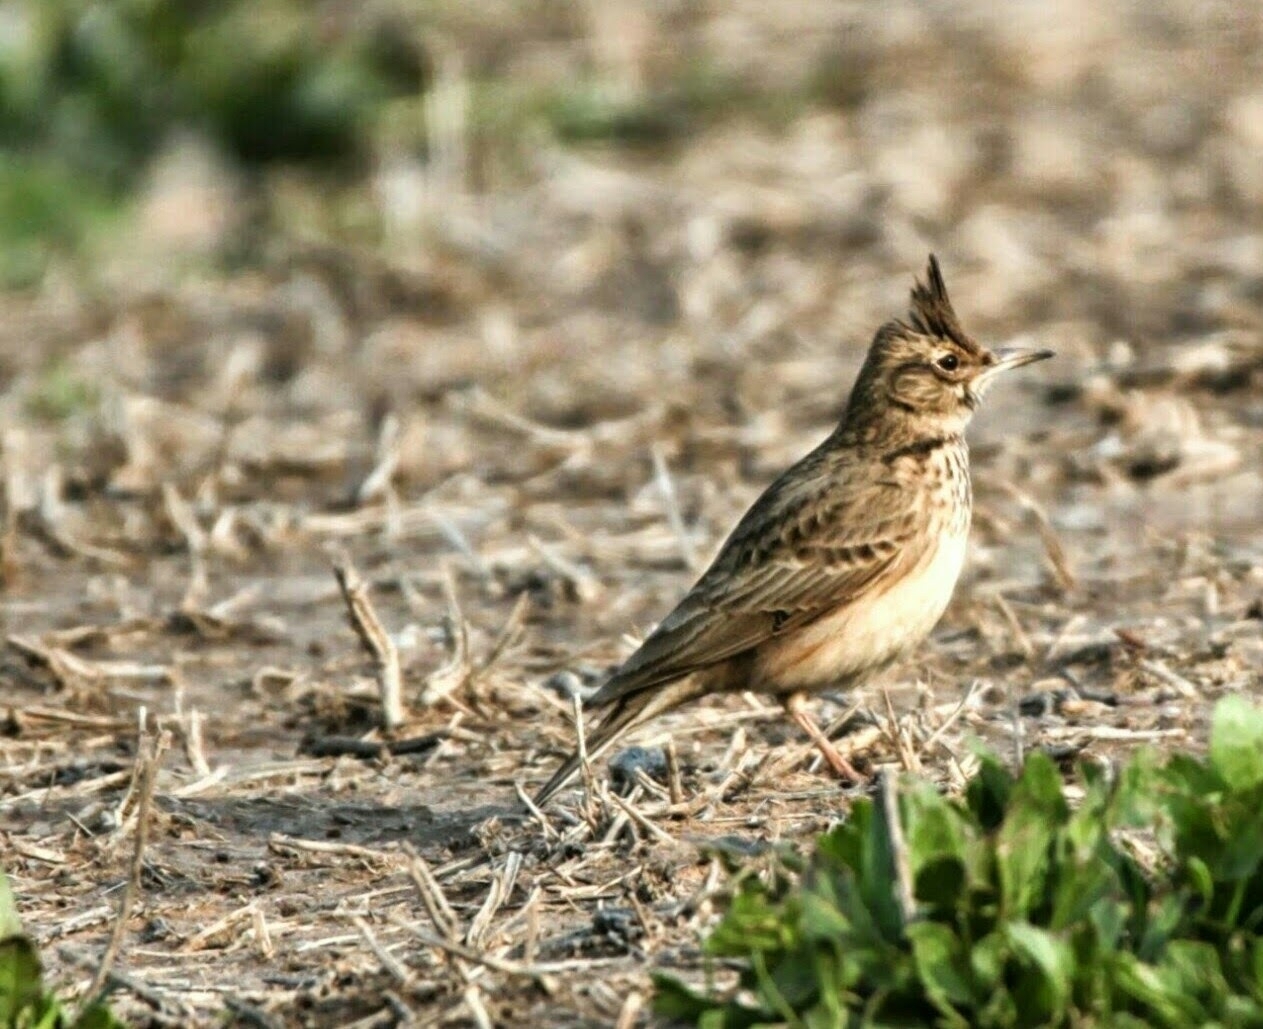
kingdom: Animalia
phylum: Chordata
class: Aves
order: Passeriformes
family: Alaudidae
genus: Galerida
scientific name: Galerida cristata
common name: Crested lark
